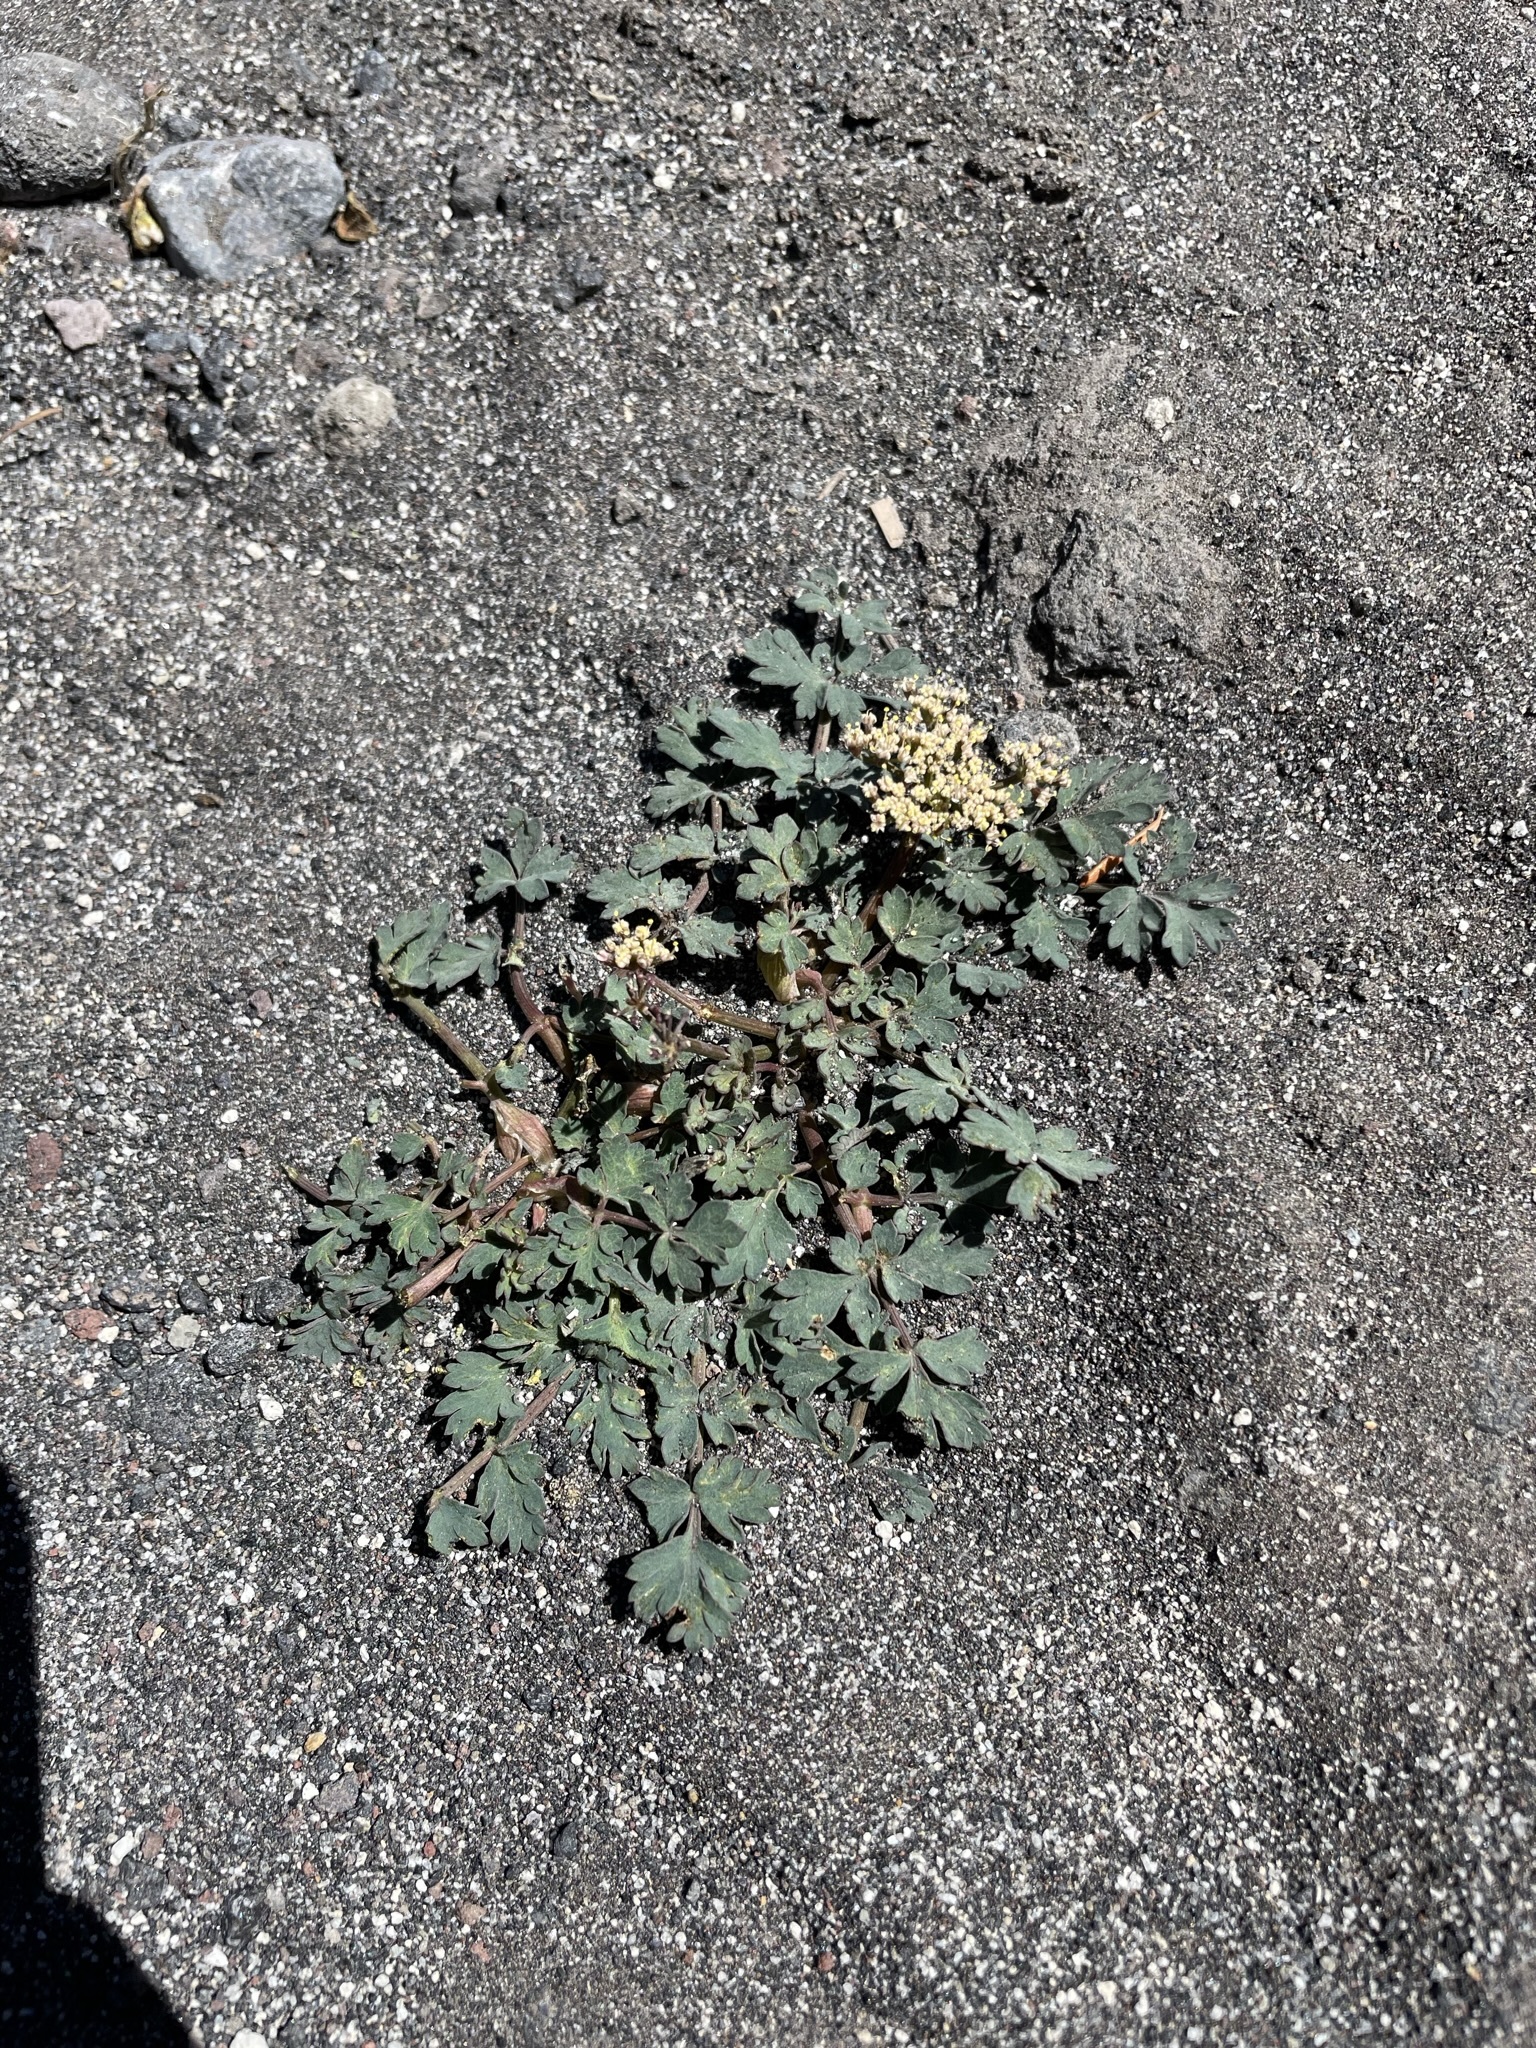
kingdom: Plantae
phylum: Tracheophyta
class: Magnoliopsida
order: Apiales
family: Apiaceae
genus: Lomatium
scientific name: Lomatium martindalei
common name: Cascade desert-parsley
